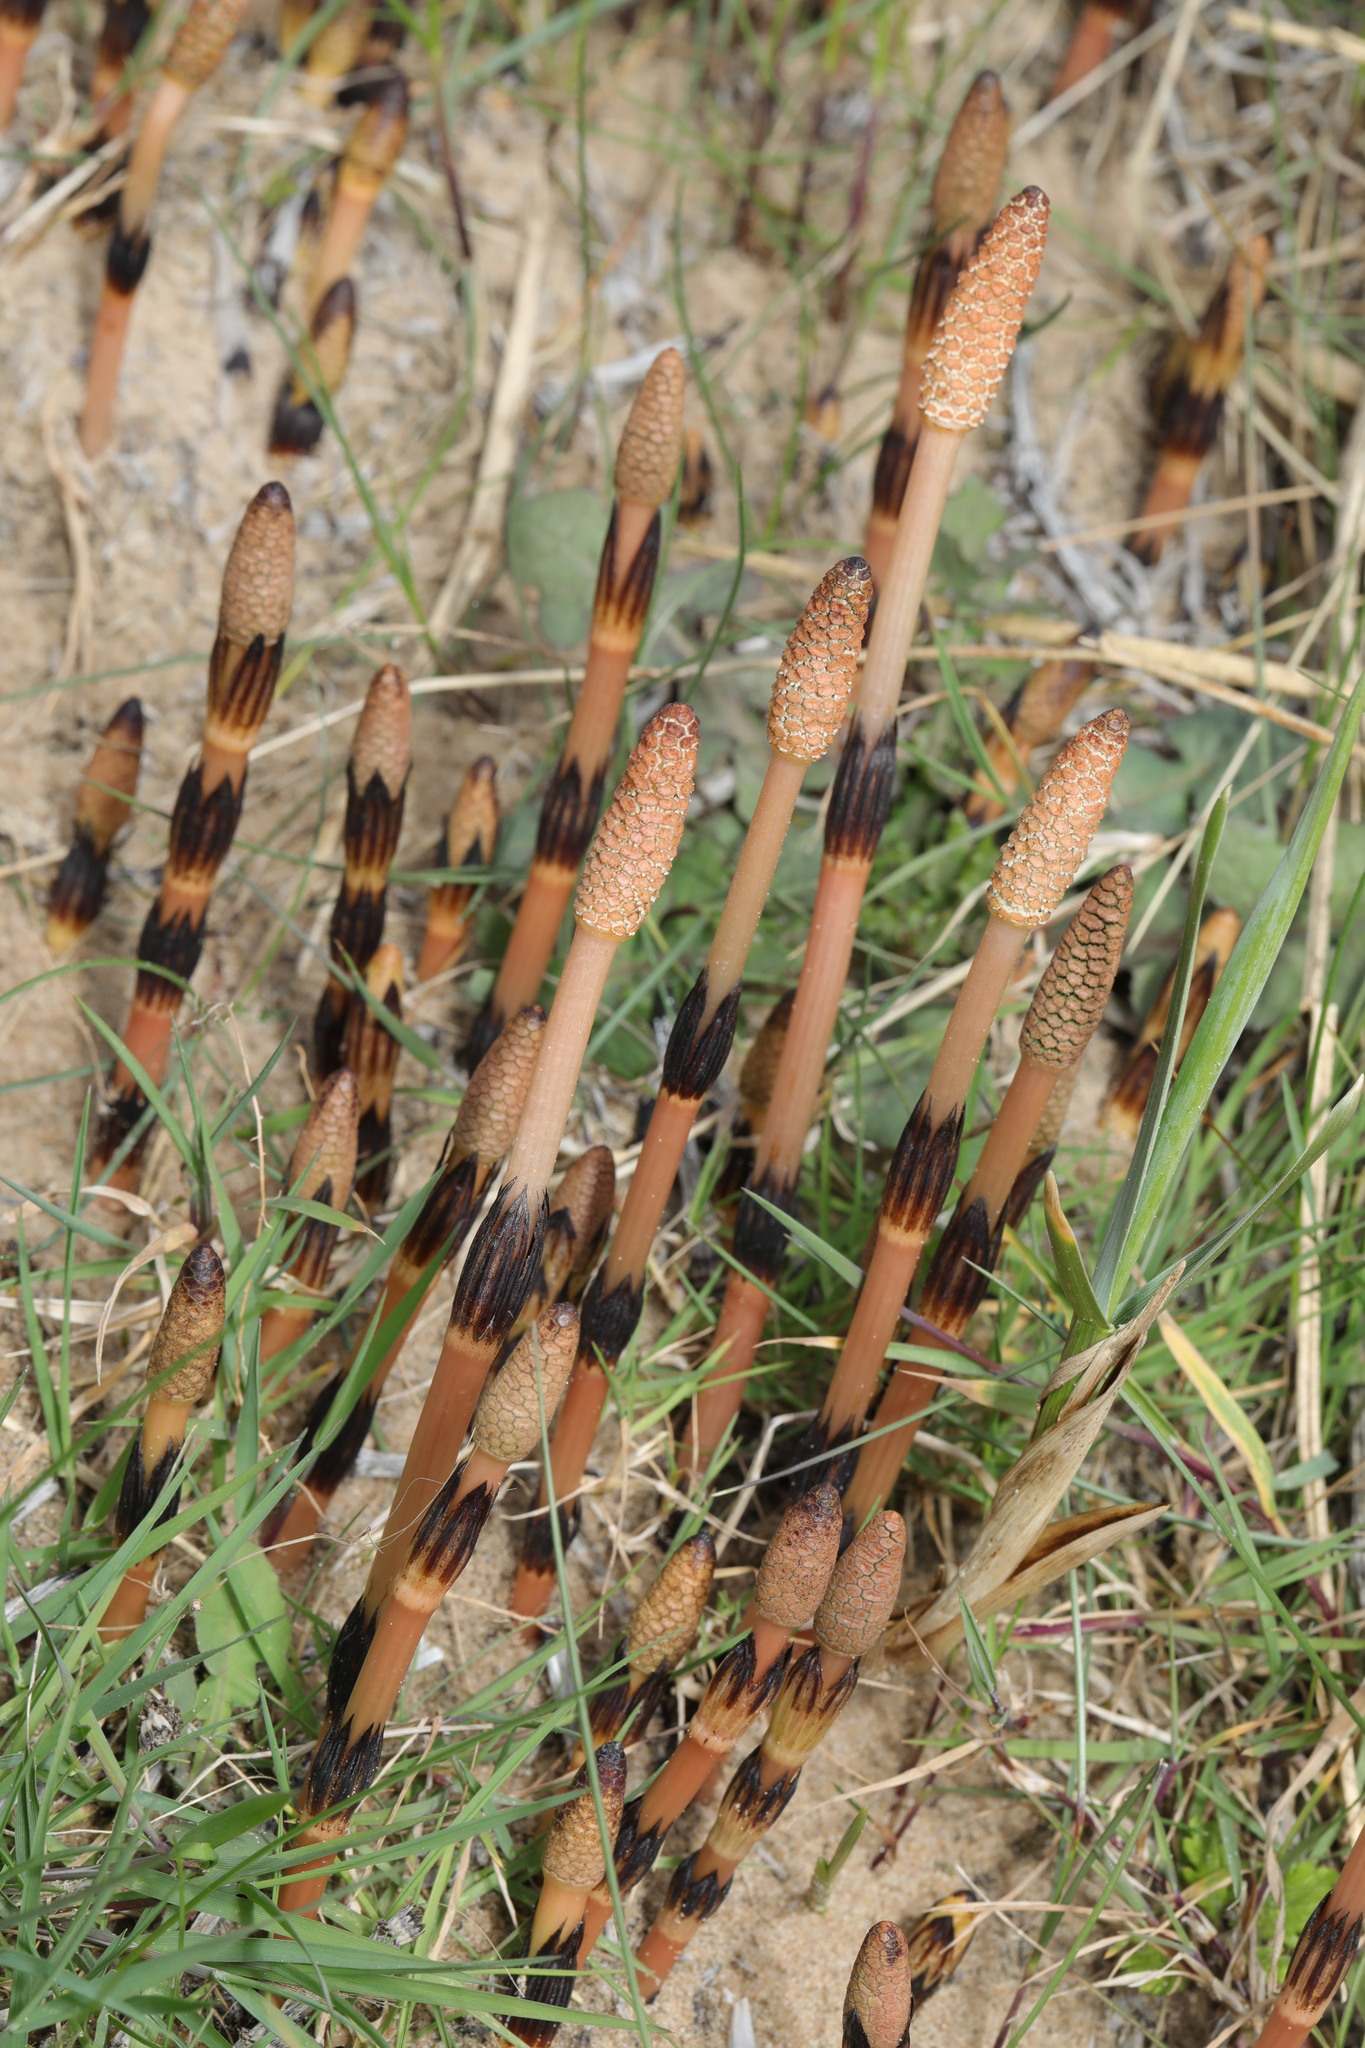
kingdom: Plantae
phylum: Tracheophyta
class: Polypodiopsida
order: Equisetales
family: Equisetaceae
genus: Equisetum
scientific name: Equisetum arvense
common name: Field horsetail
